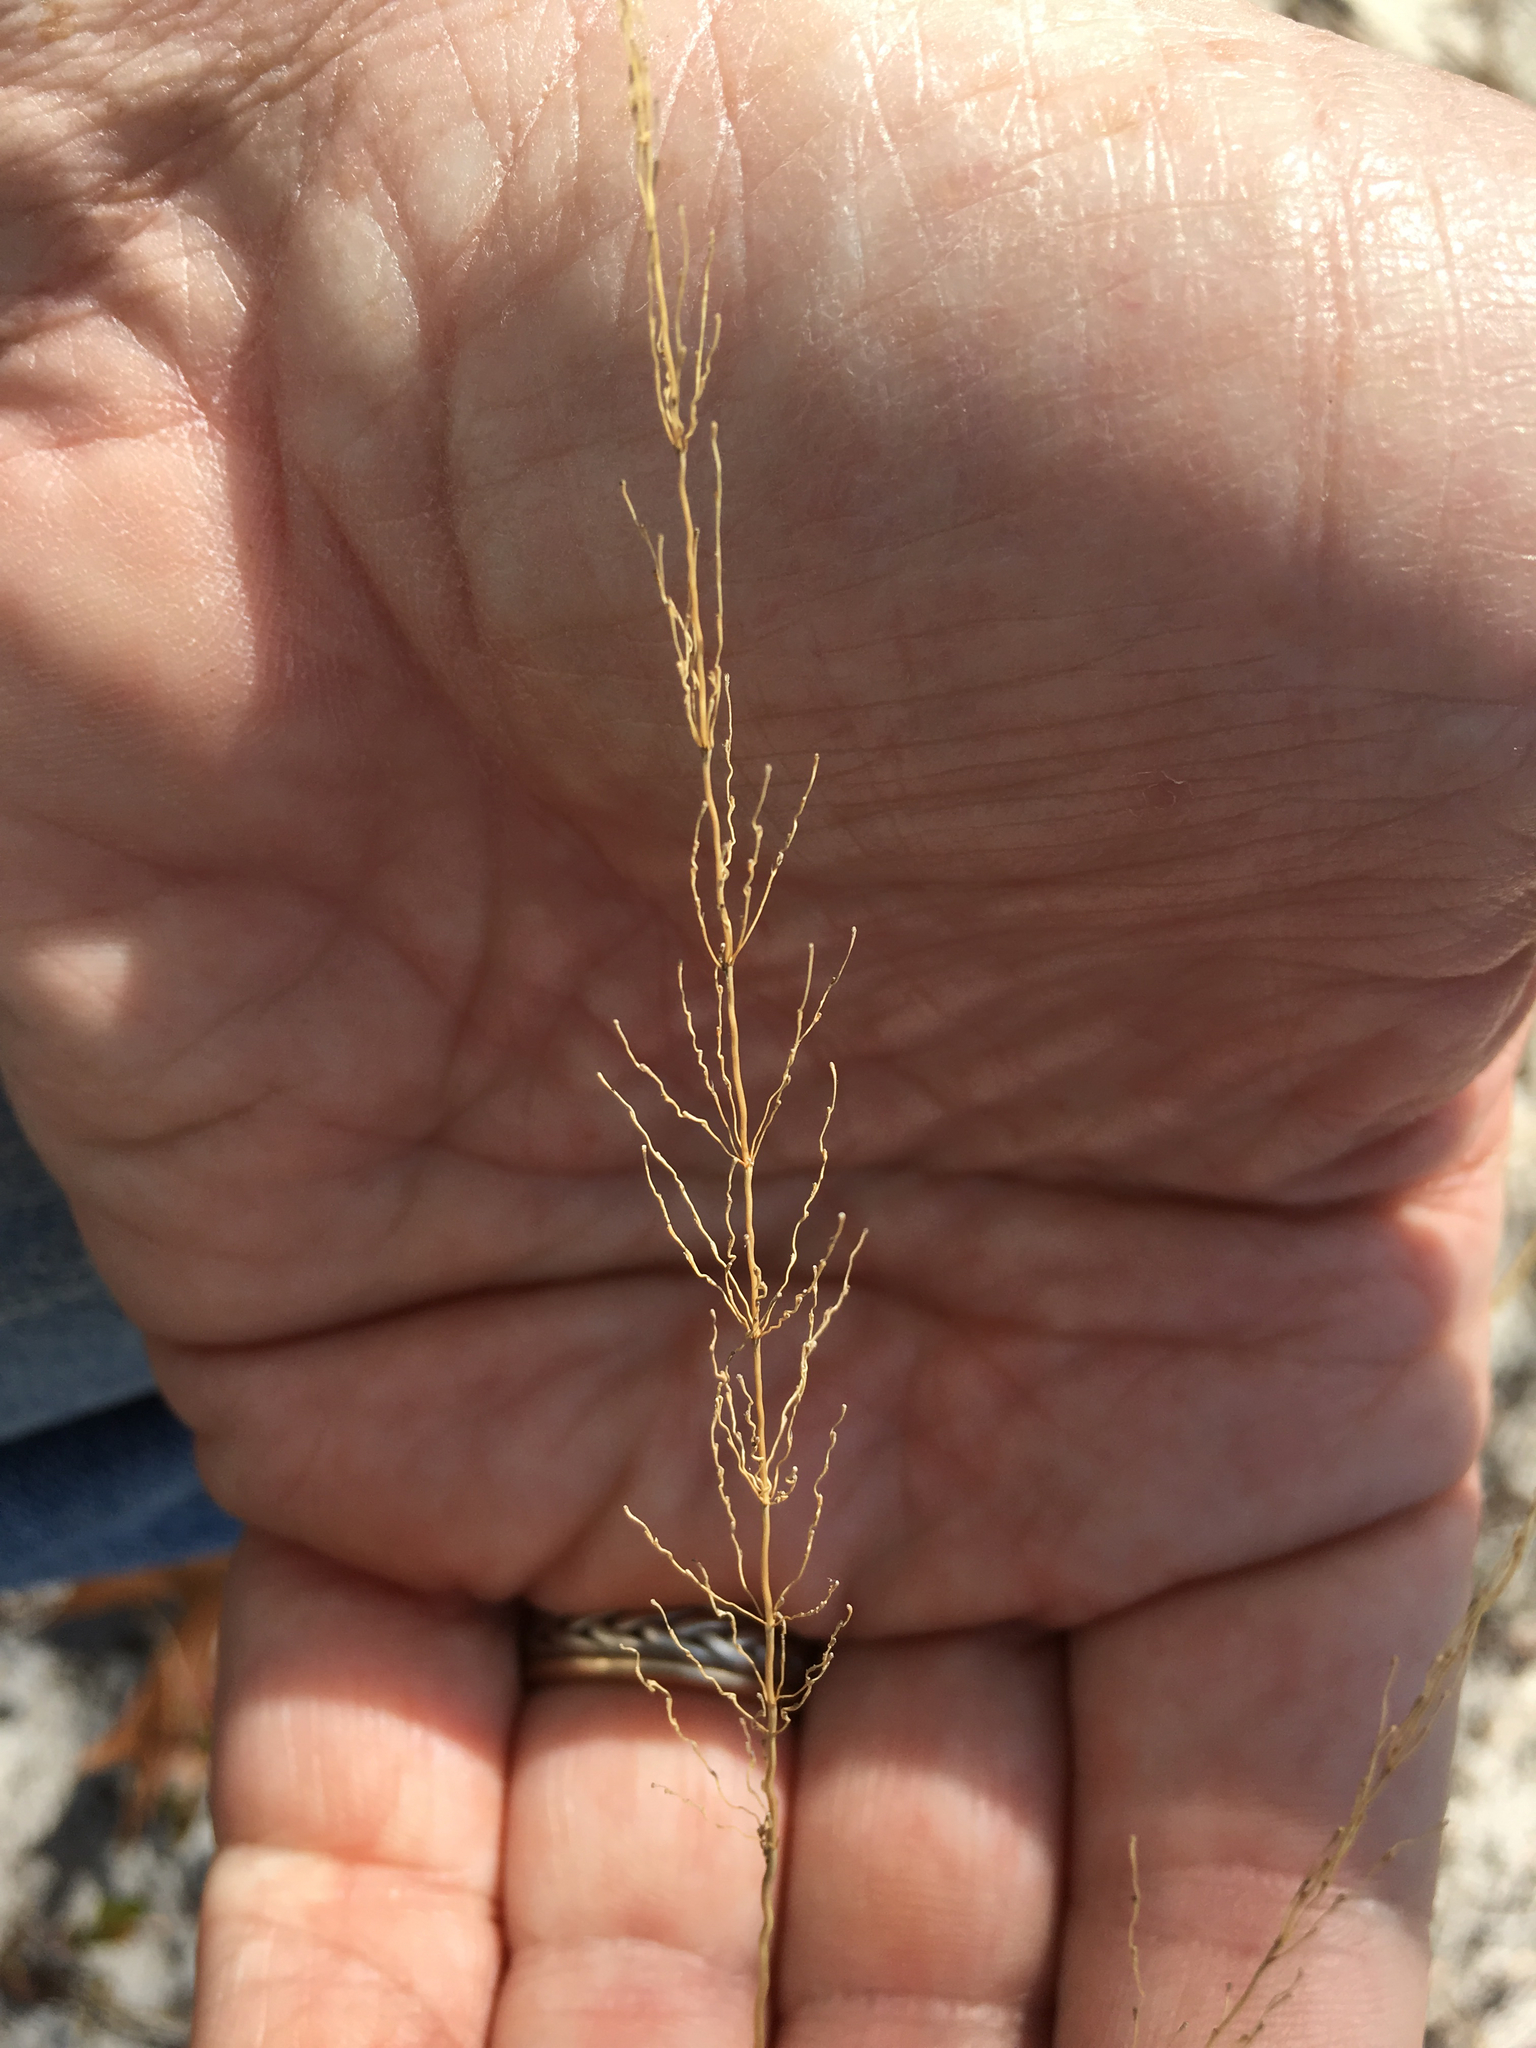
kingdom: Plantae
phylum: Tracheophyta
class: Liliopsida
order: Poales
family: Poaceae
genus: Sporobolus
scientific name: Sporobolus junceus
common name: Lizard grass
